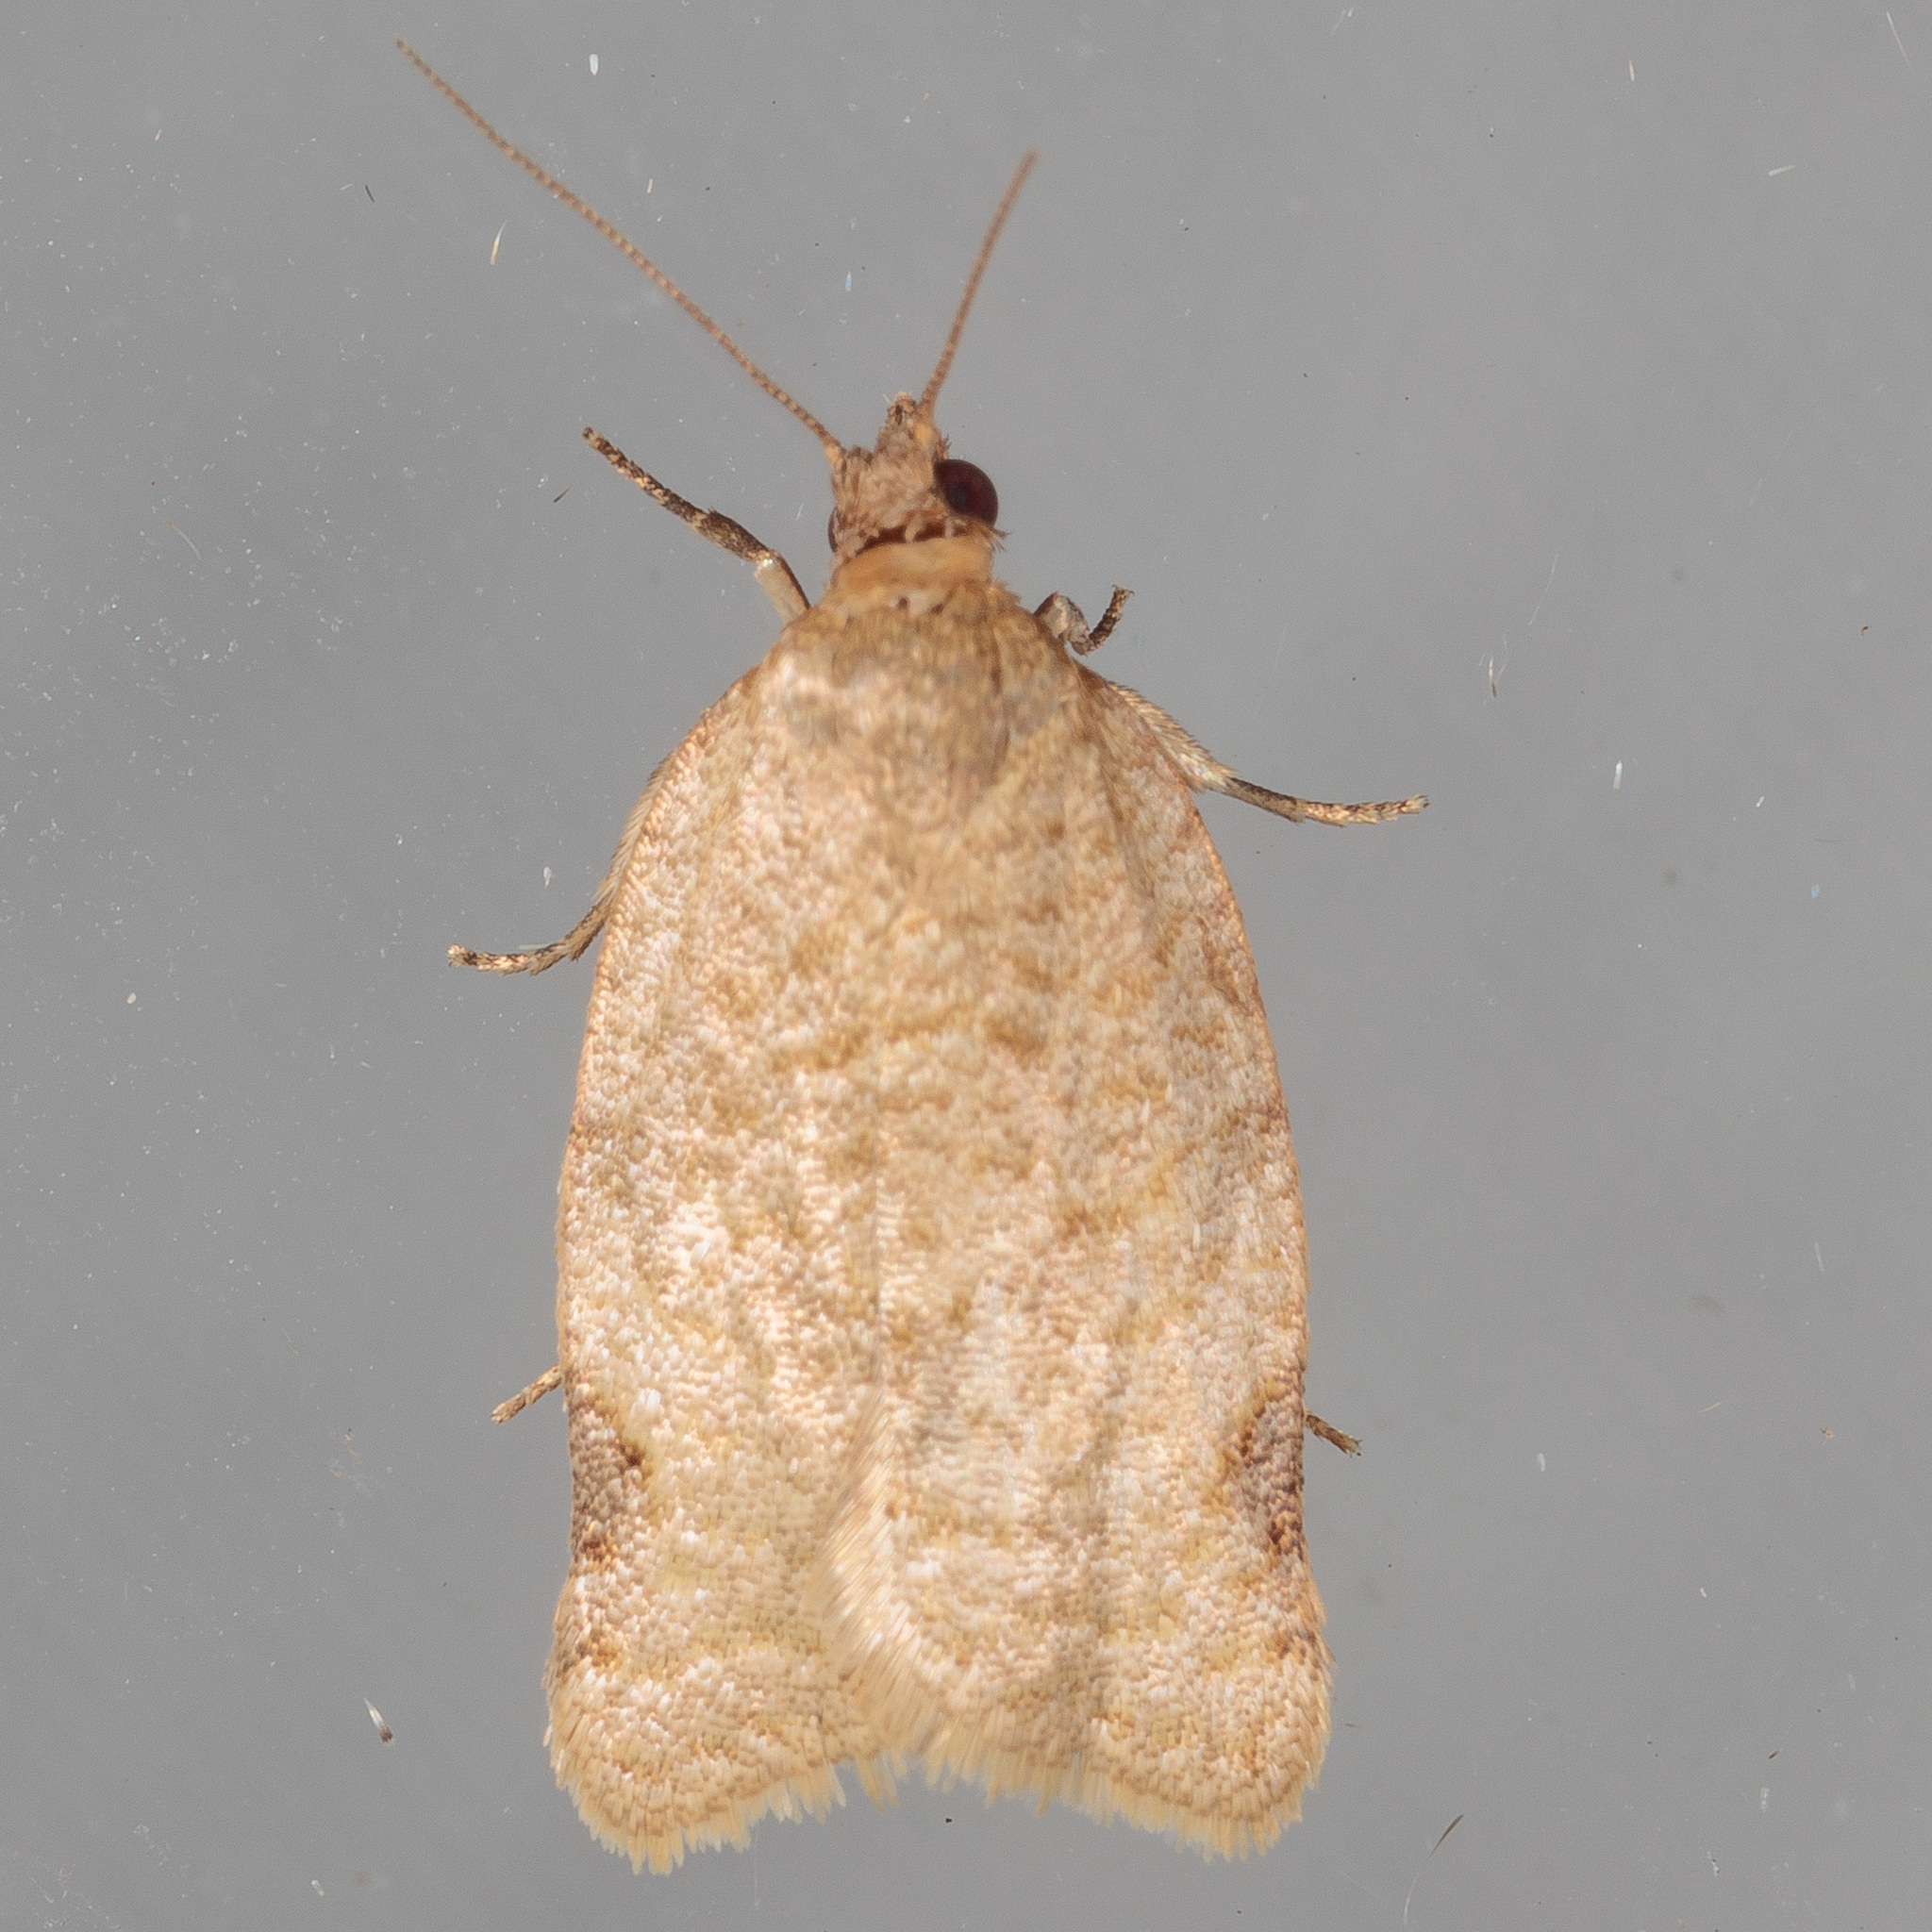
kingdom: Animalia
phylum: Arthropoda
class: Insecta
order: Lepidoptera
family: Tortricidae
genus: Clepsis
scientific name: Clepsis virescana
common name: Greenish apple moth
